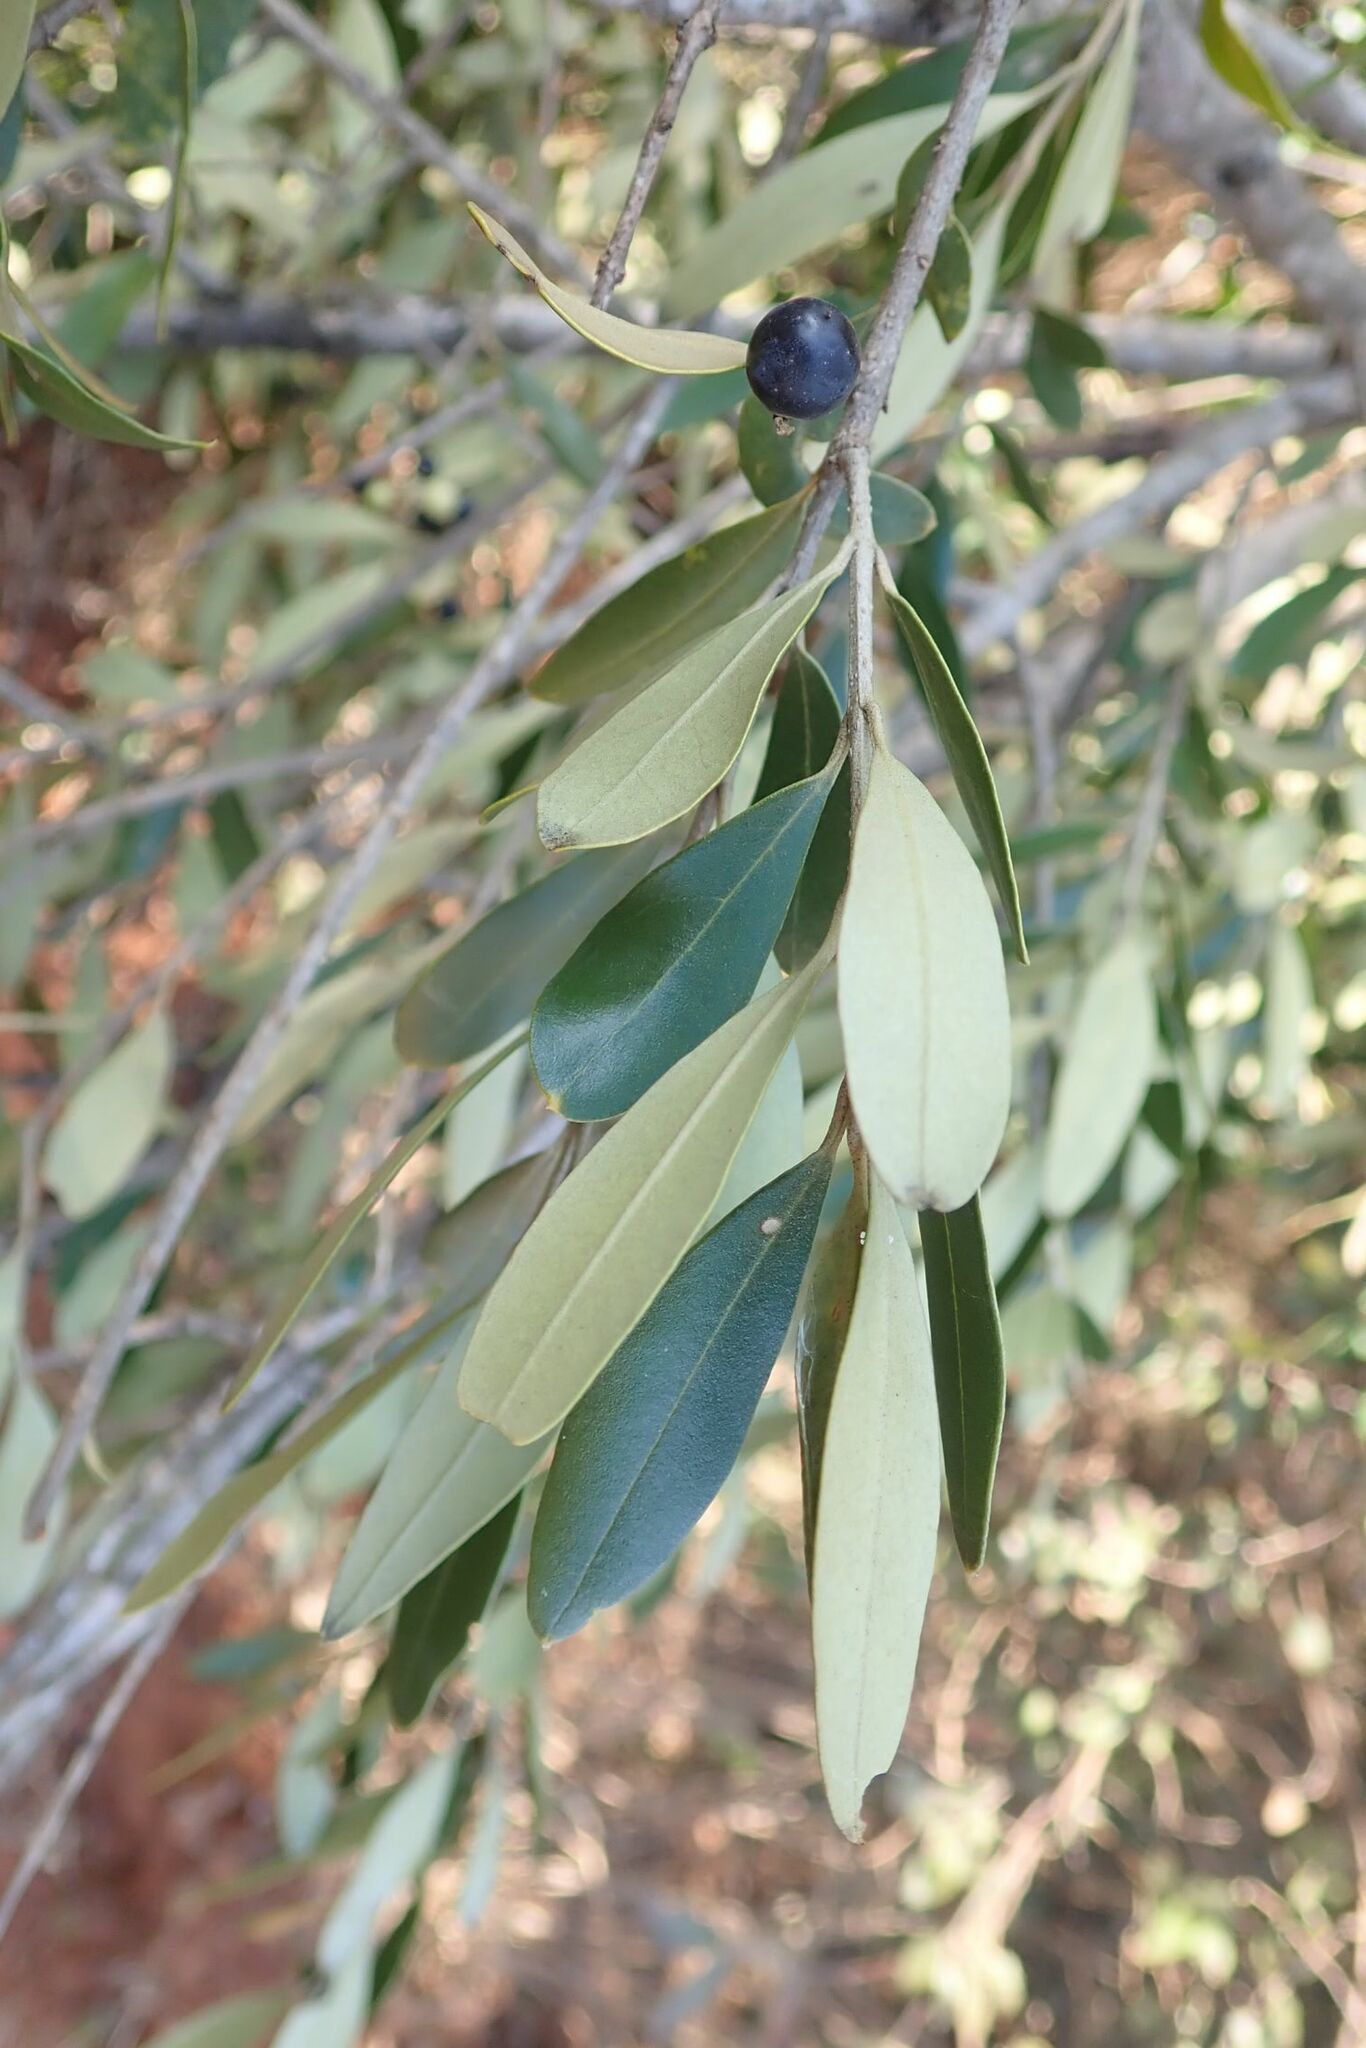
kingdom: Plantae
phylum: Tracheophyta
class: Magnoliopsida
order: Lamiales
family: Oleaceae
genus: Olea
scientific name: Olea europaea
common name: Olive
